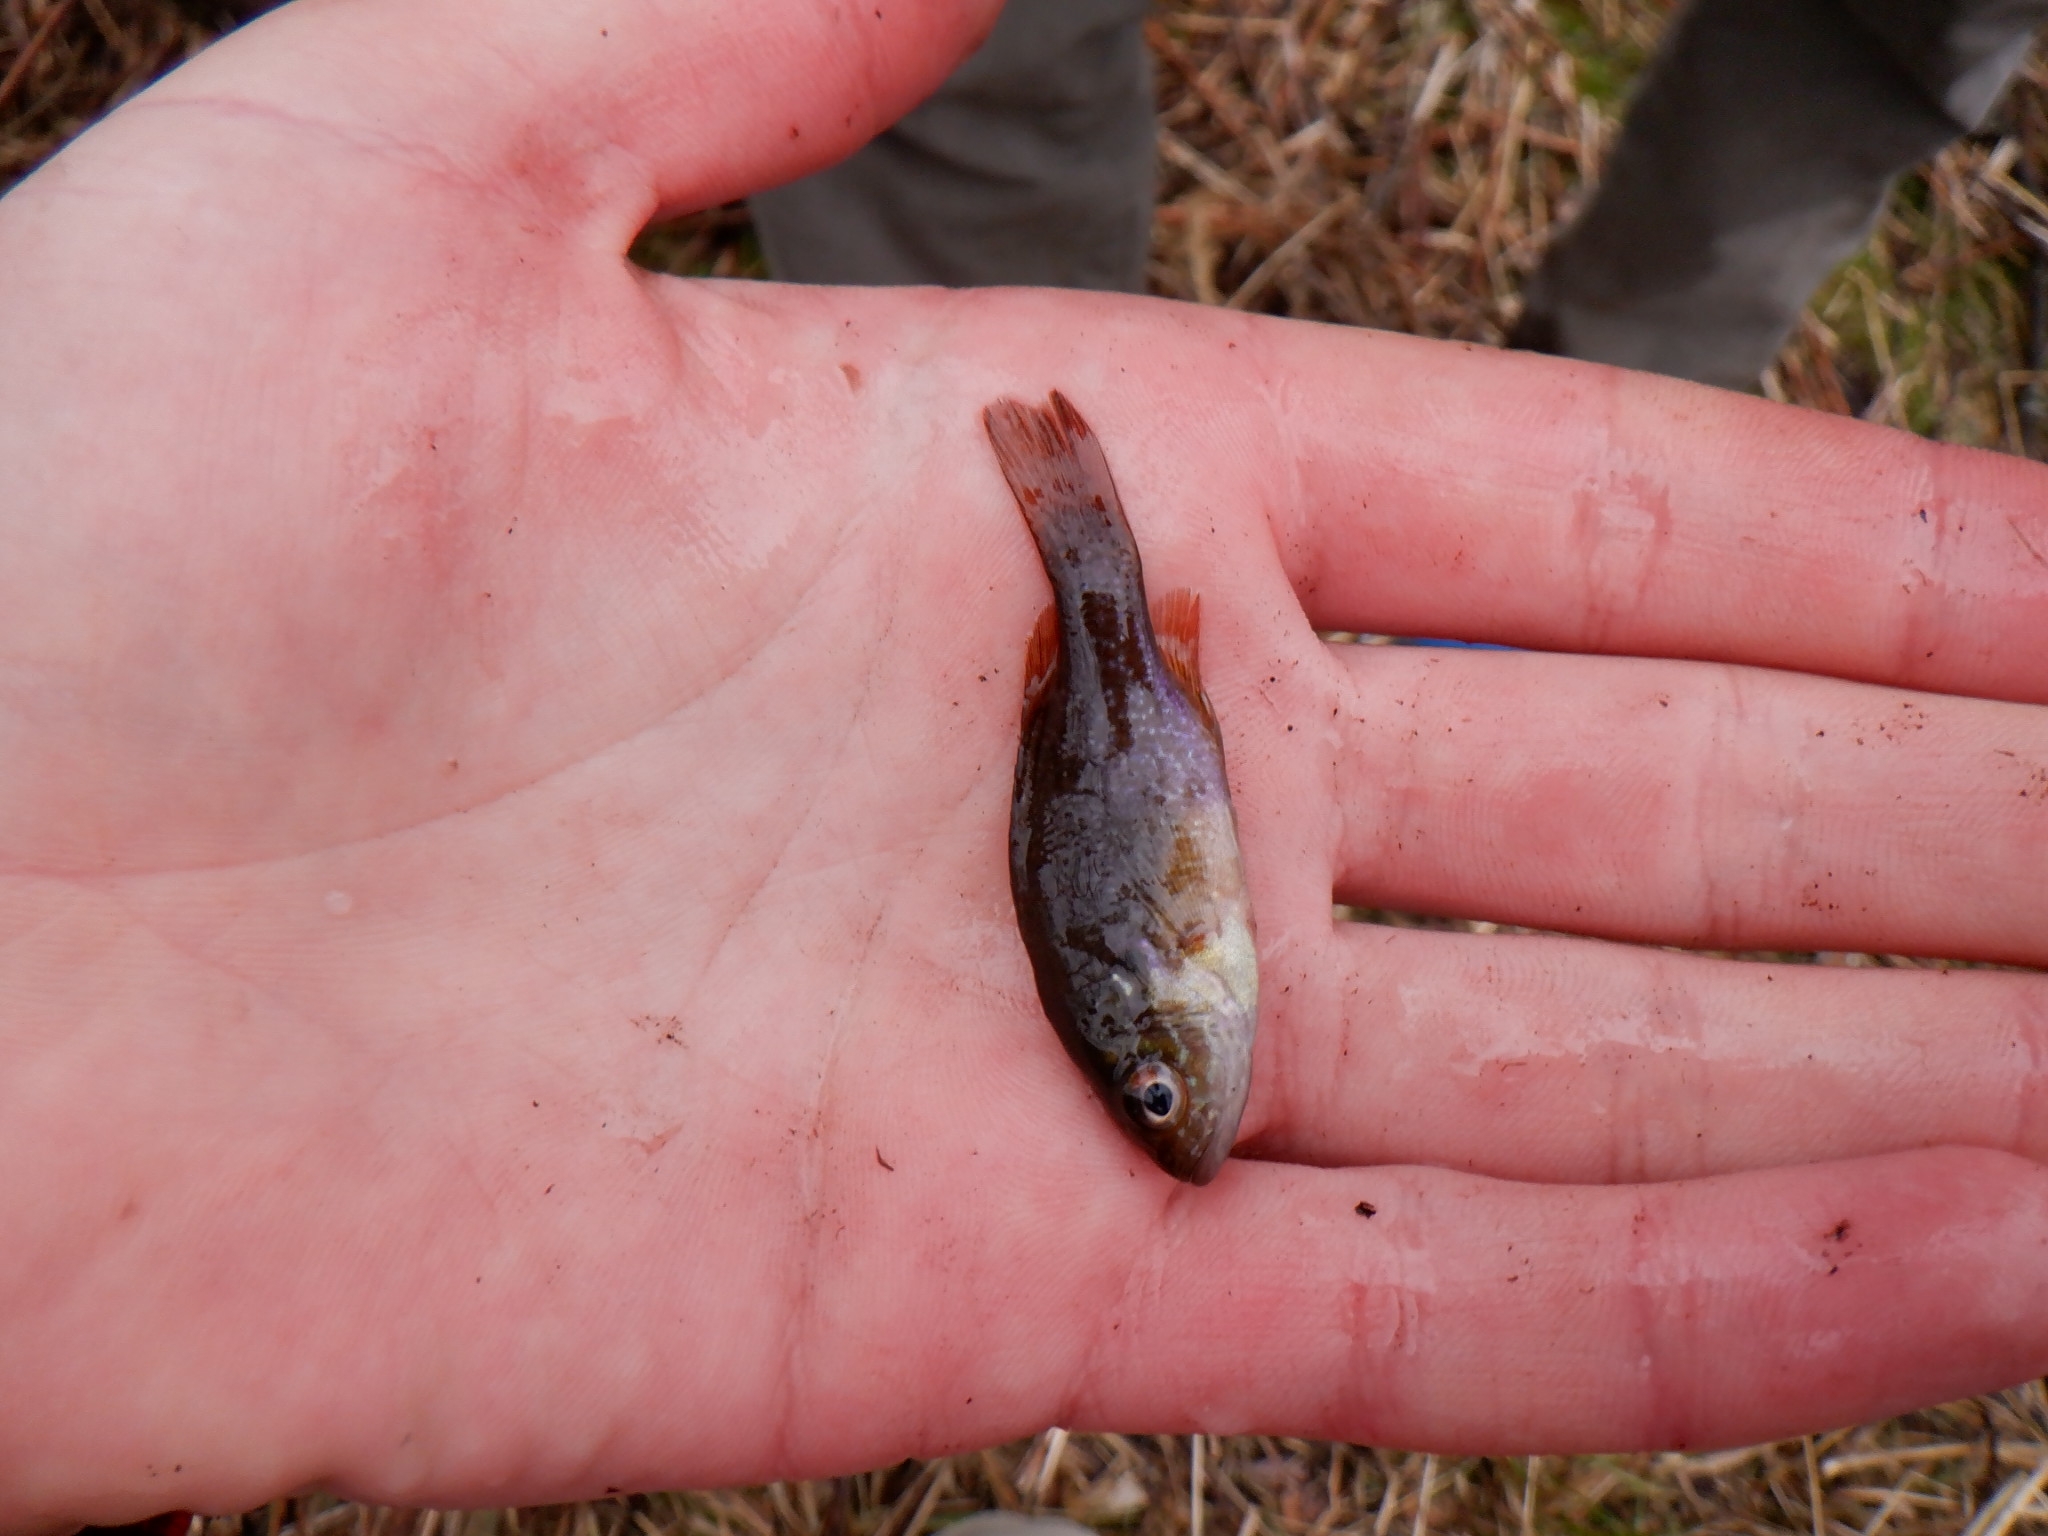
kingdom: Animalia
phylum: Chordata
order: Perciformes
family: Centrarchidae
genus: Lepomis
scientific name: Lepomis cyanellus
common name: Green sunfish
